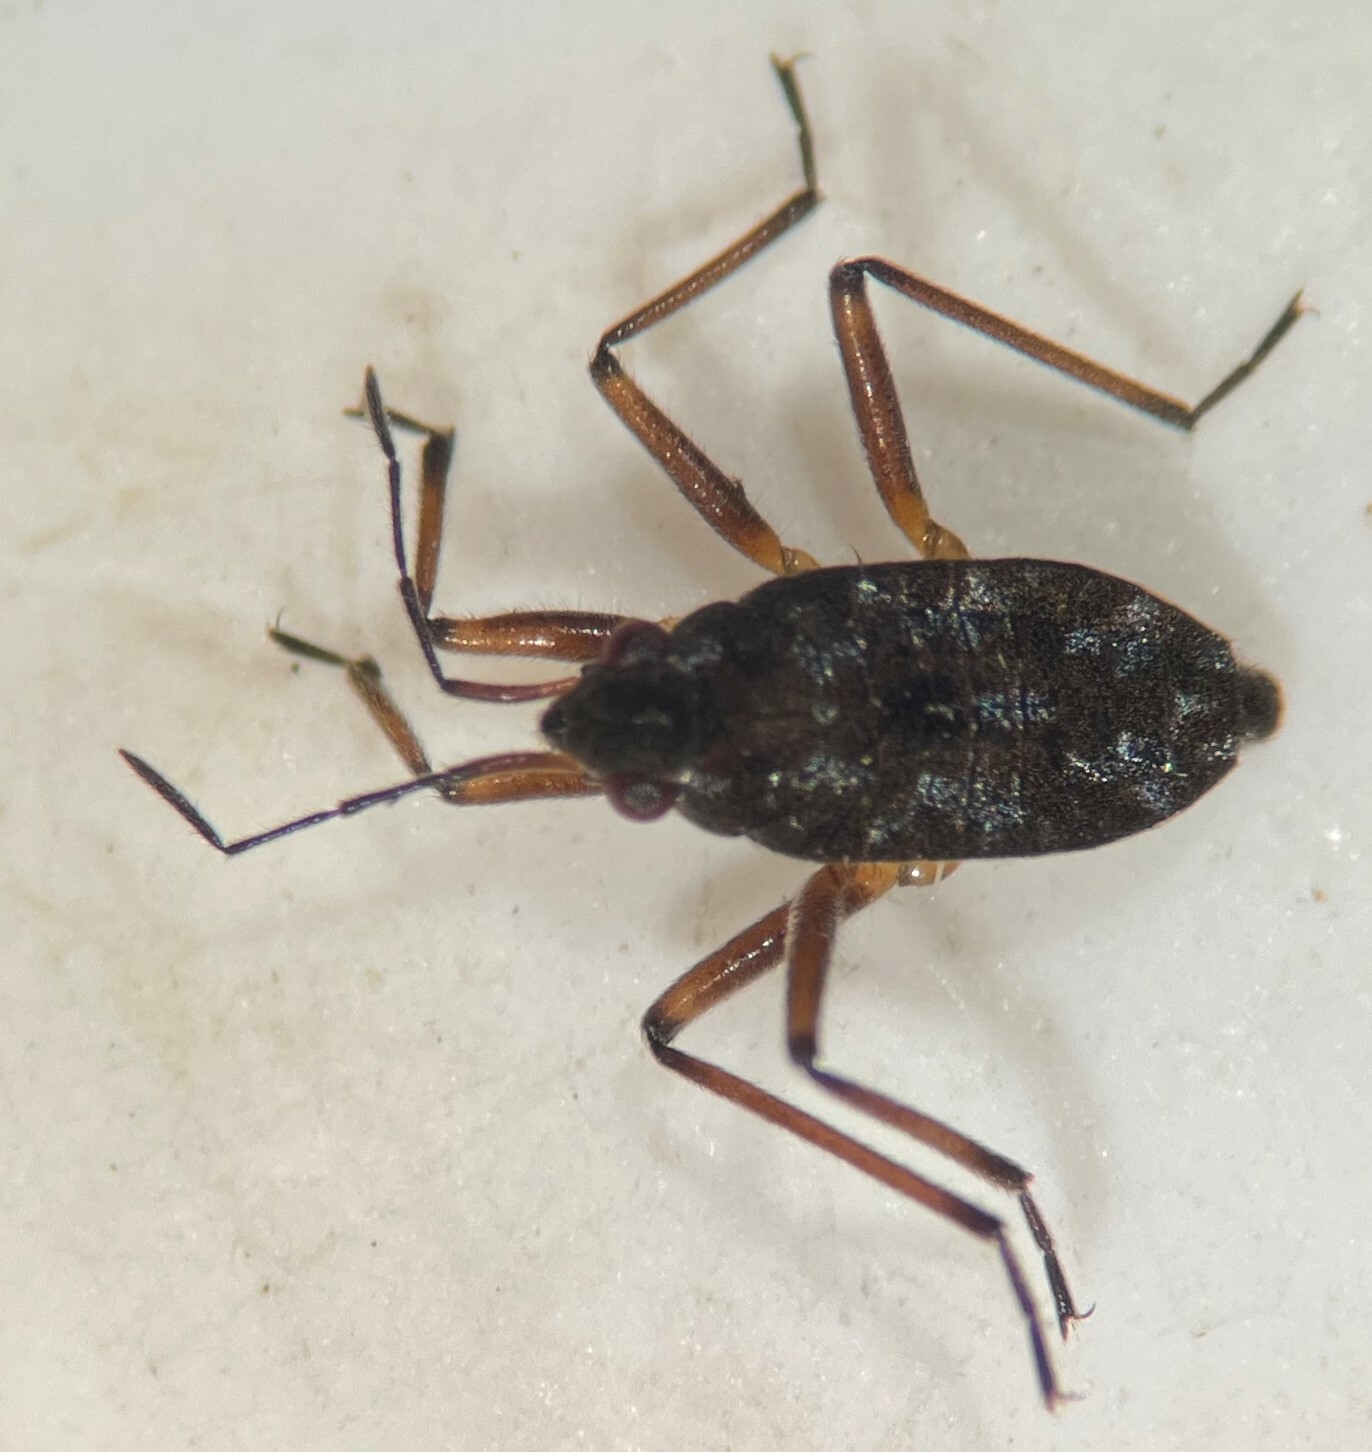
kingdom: Animalia
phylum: Arthropoda
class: Insecta
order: Hemiptera
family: Veliidae
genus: Microvelia
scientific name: Microvelia fasciculifera
